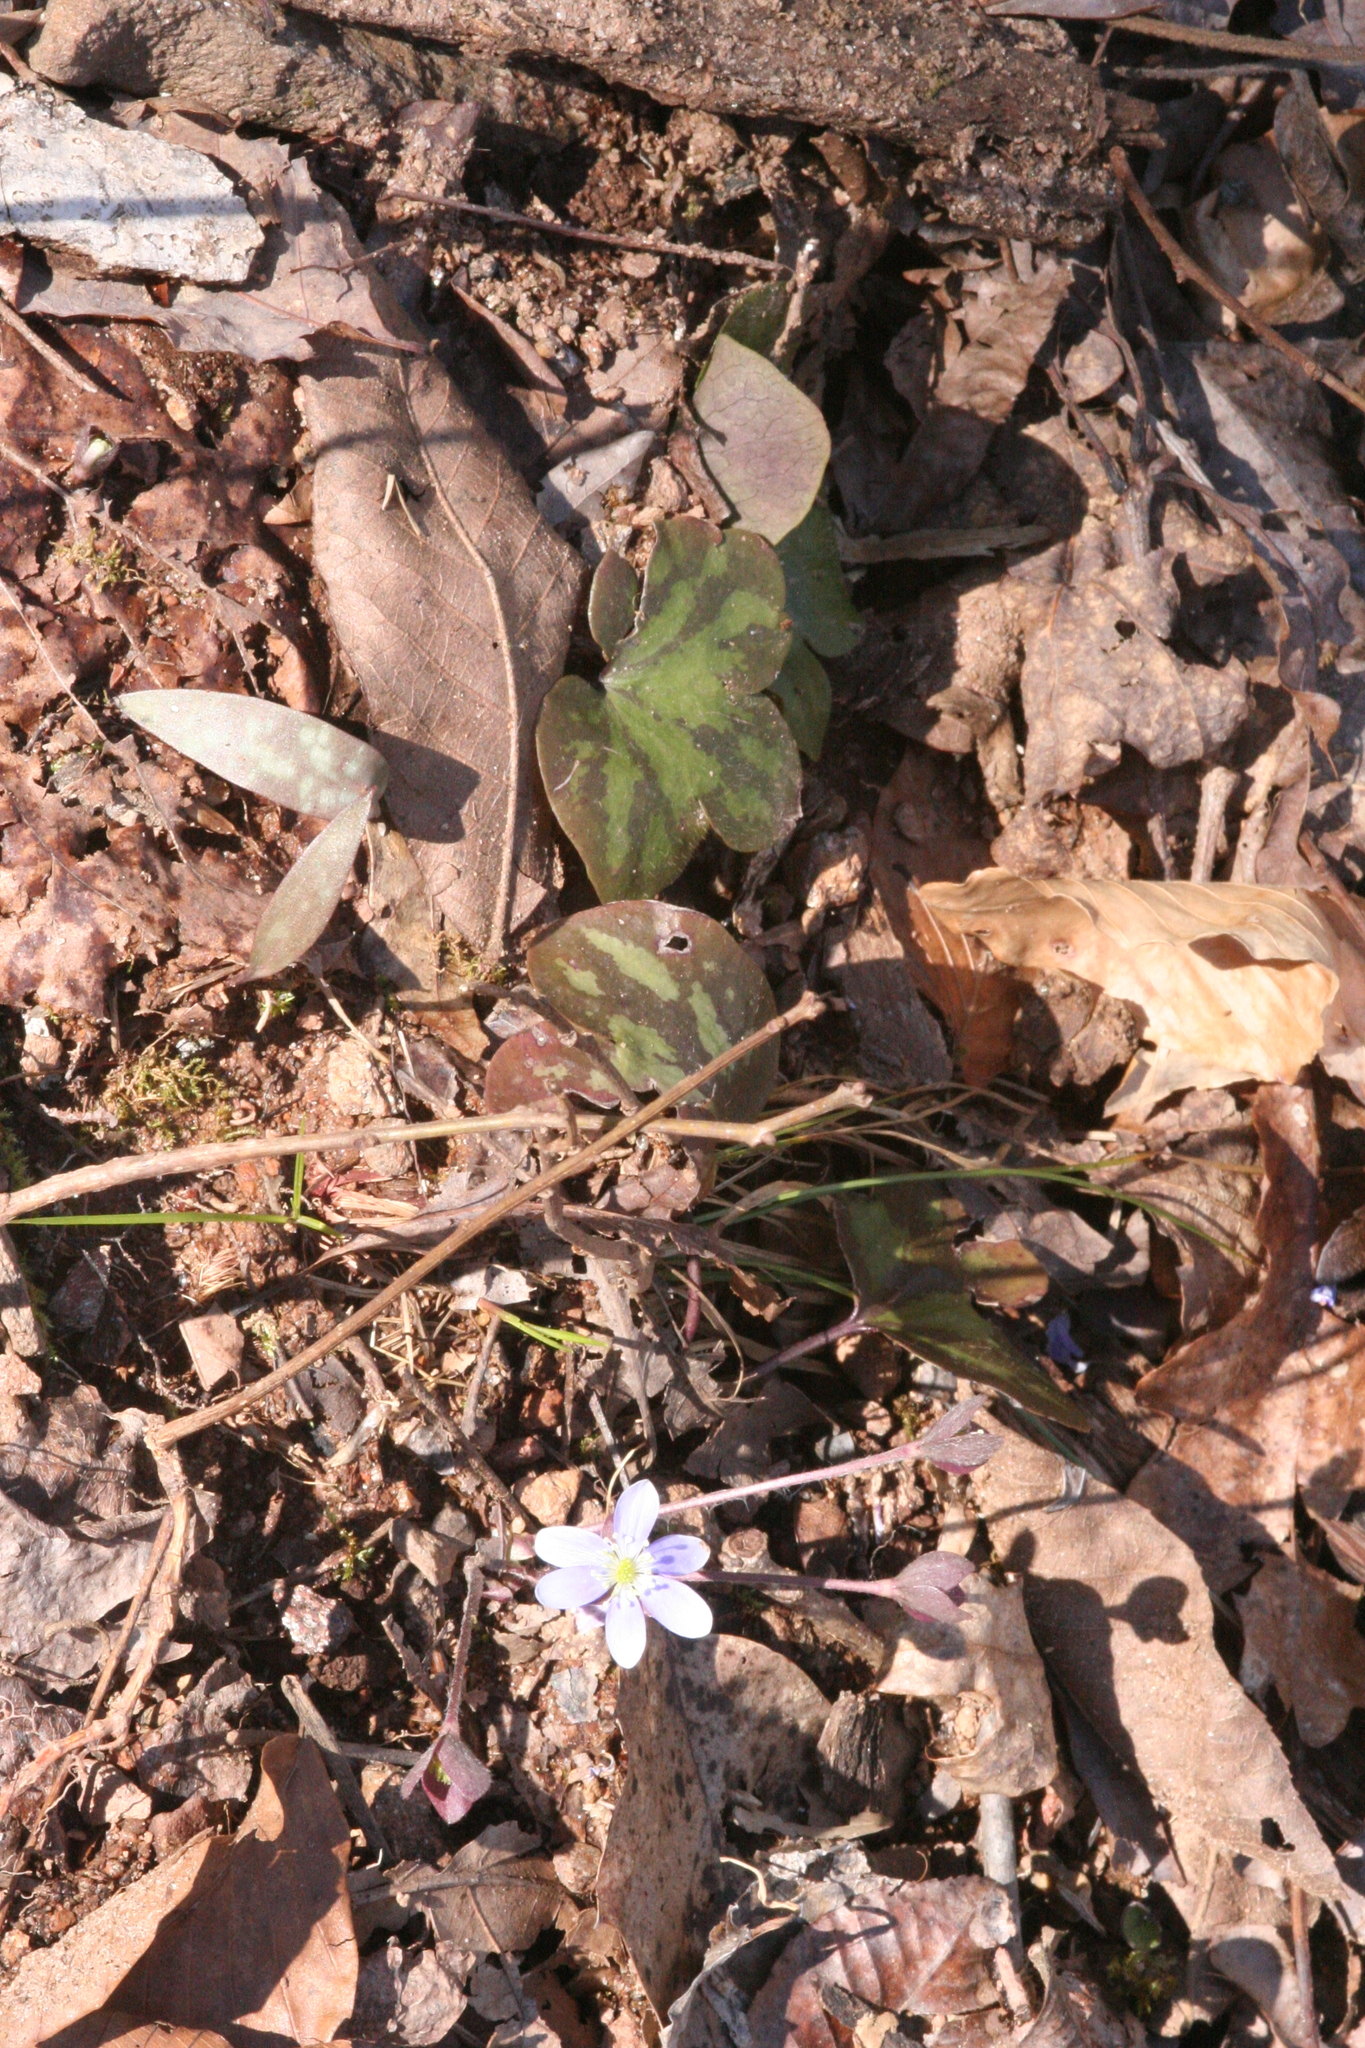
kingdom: Plantae
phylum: Tracheophyta
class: Magnoliopsida
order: Ranunculales
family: Ranunculaceae
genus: Hepatica
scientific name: Hepatica americana
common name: American hepatica
